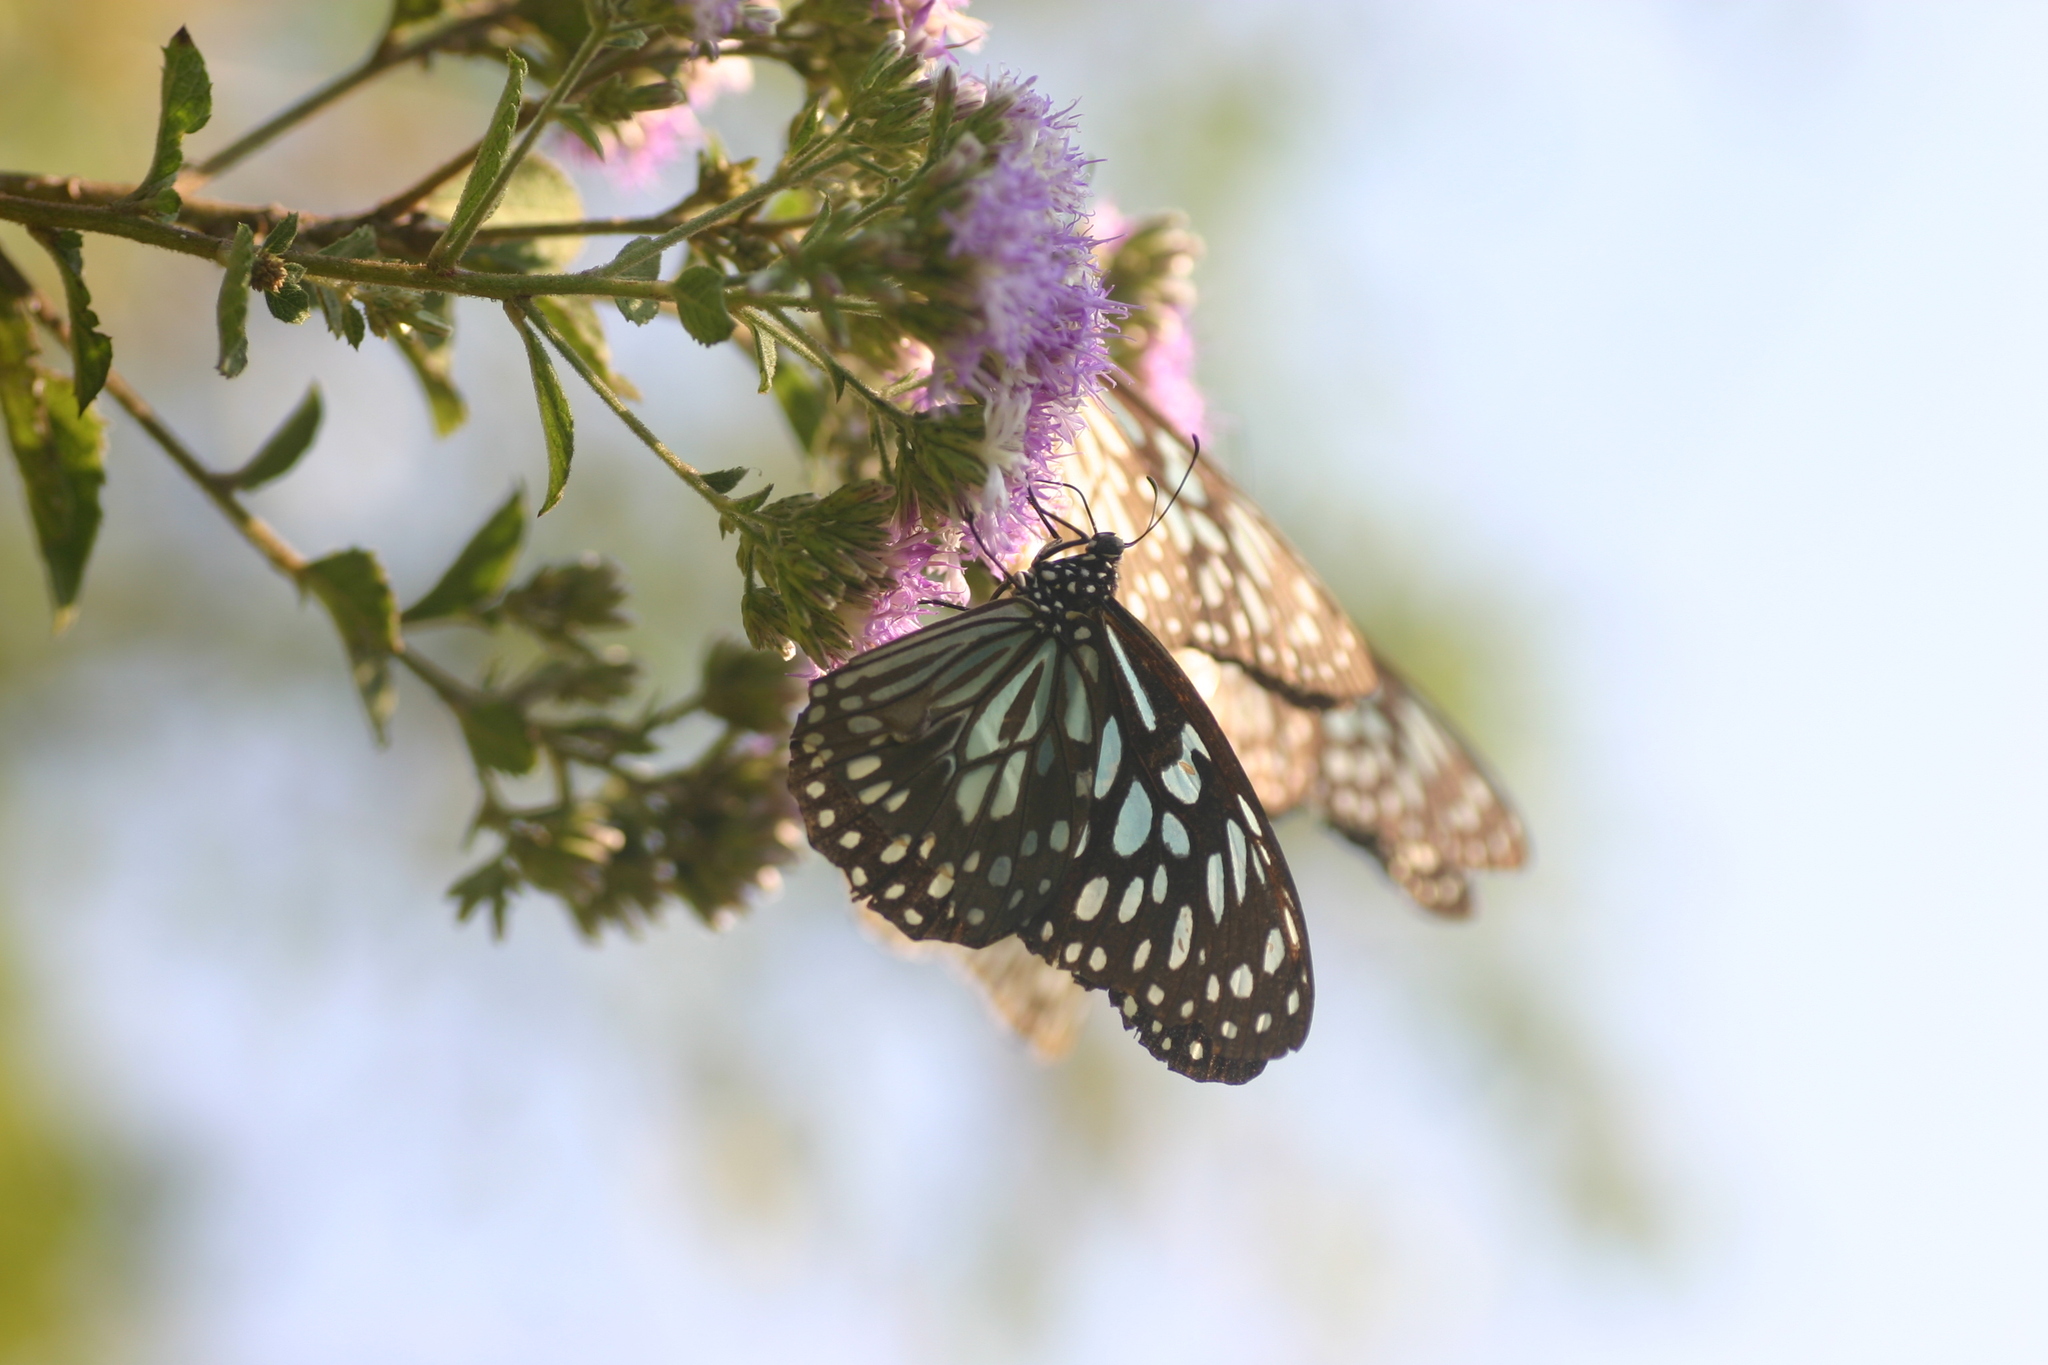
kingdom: Animalia
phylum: Arthropoda
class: Insecta
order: Lepidoptera
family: Nymphalidae
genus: Tirumala
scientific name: Tirumala septentrionis
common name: Dark blue tiger butterfly
